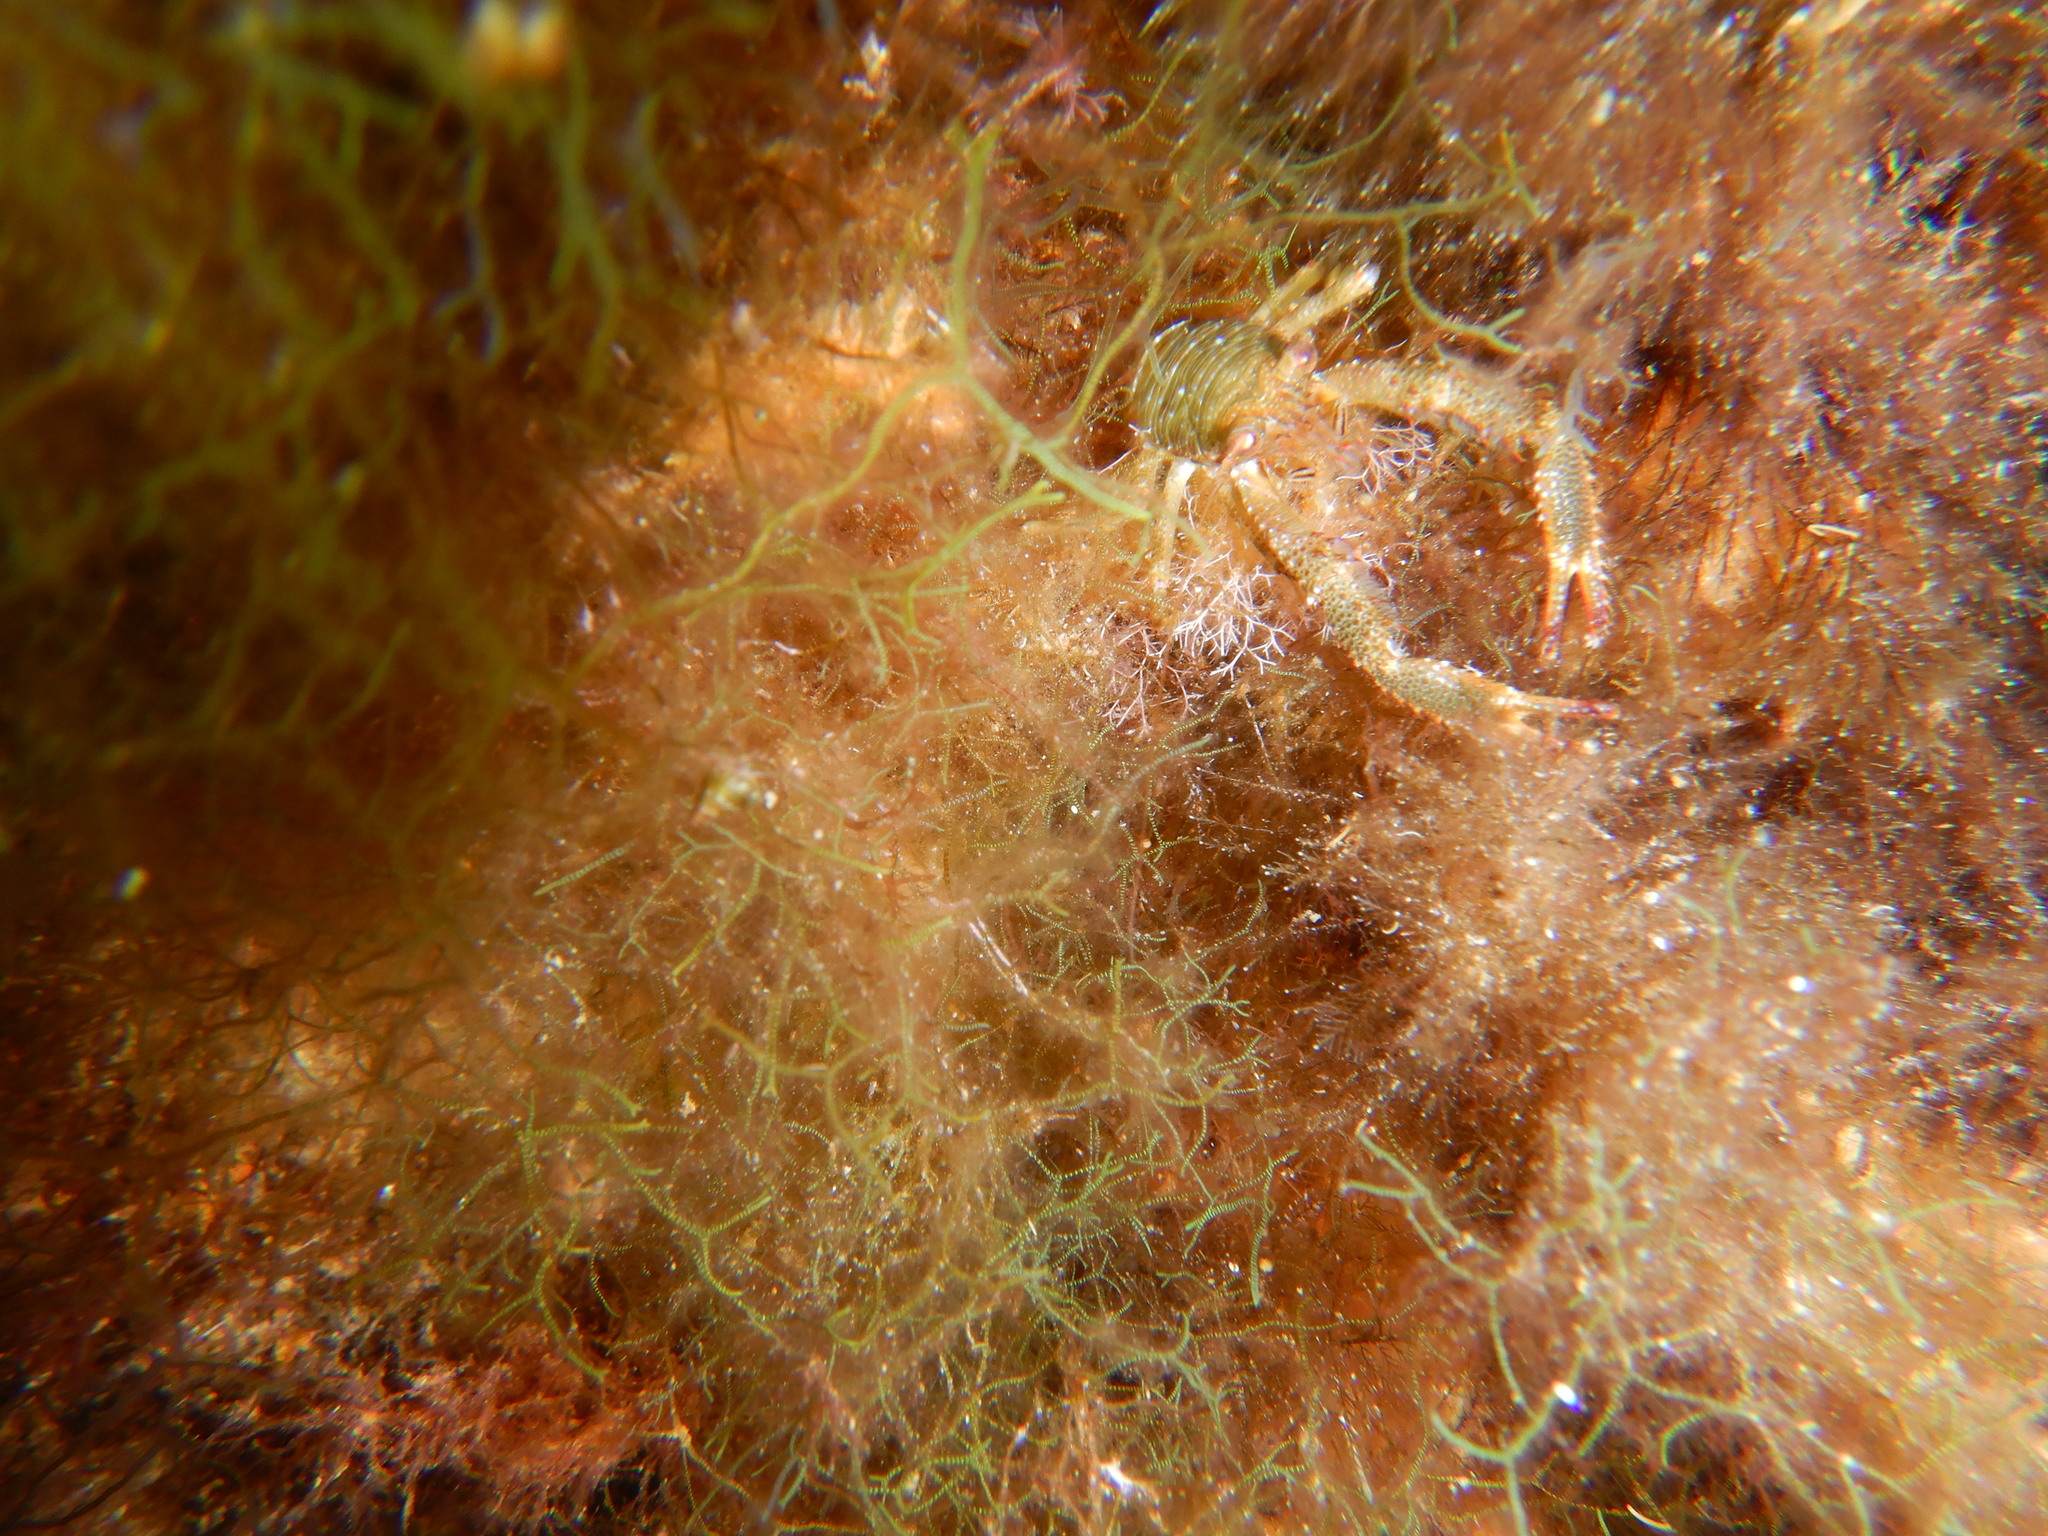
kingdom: Animalia
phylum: Arthropoda
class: Malacostraca
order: Decapoda
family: Galatheidae
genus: Galathea
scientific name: Galathea squamifera
